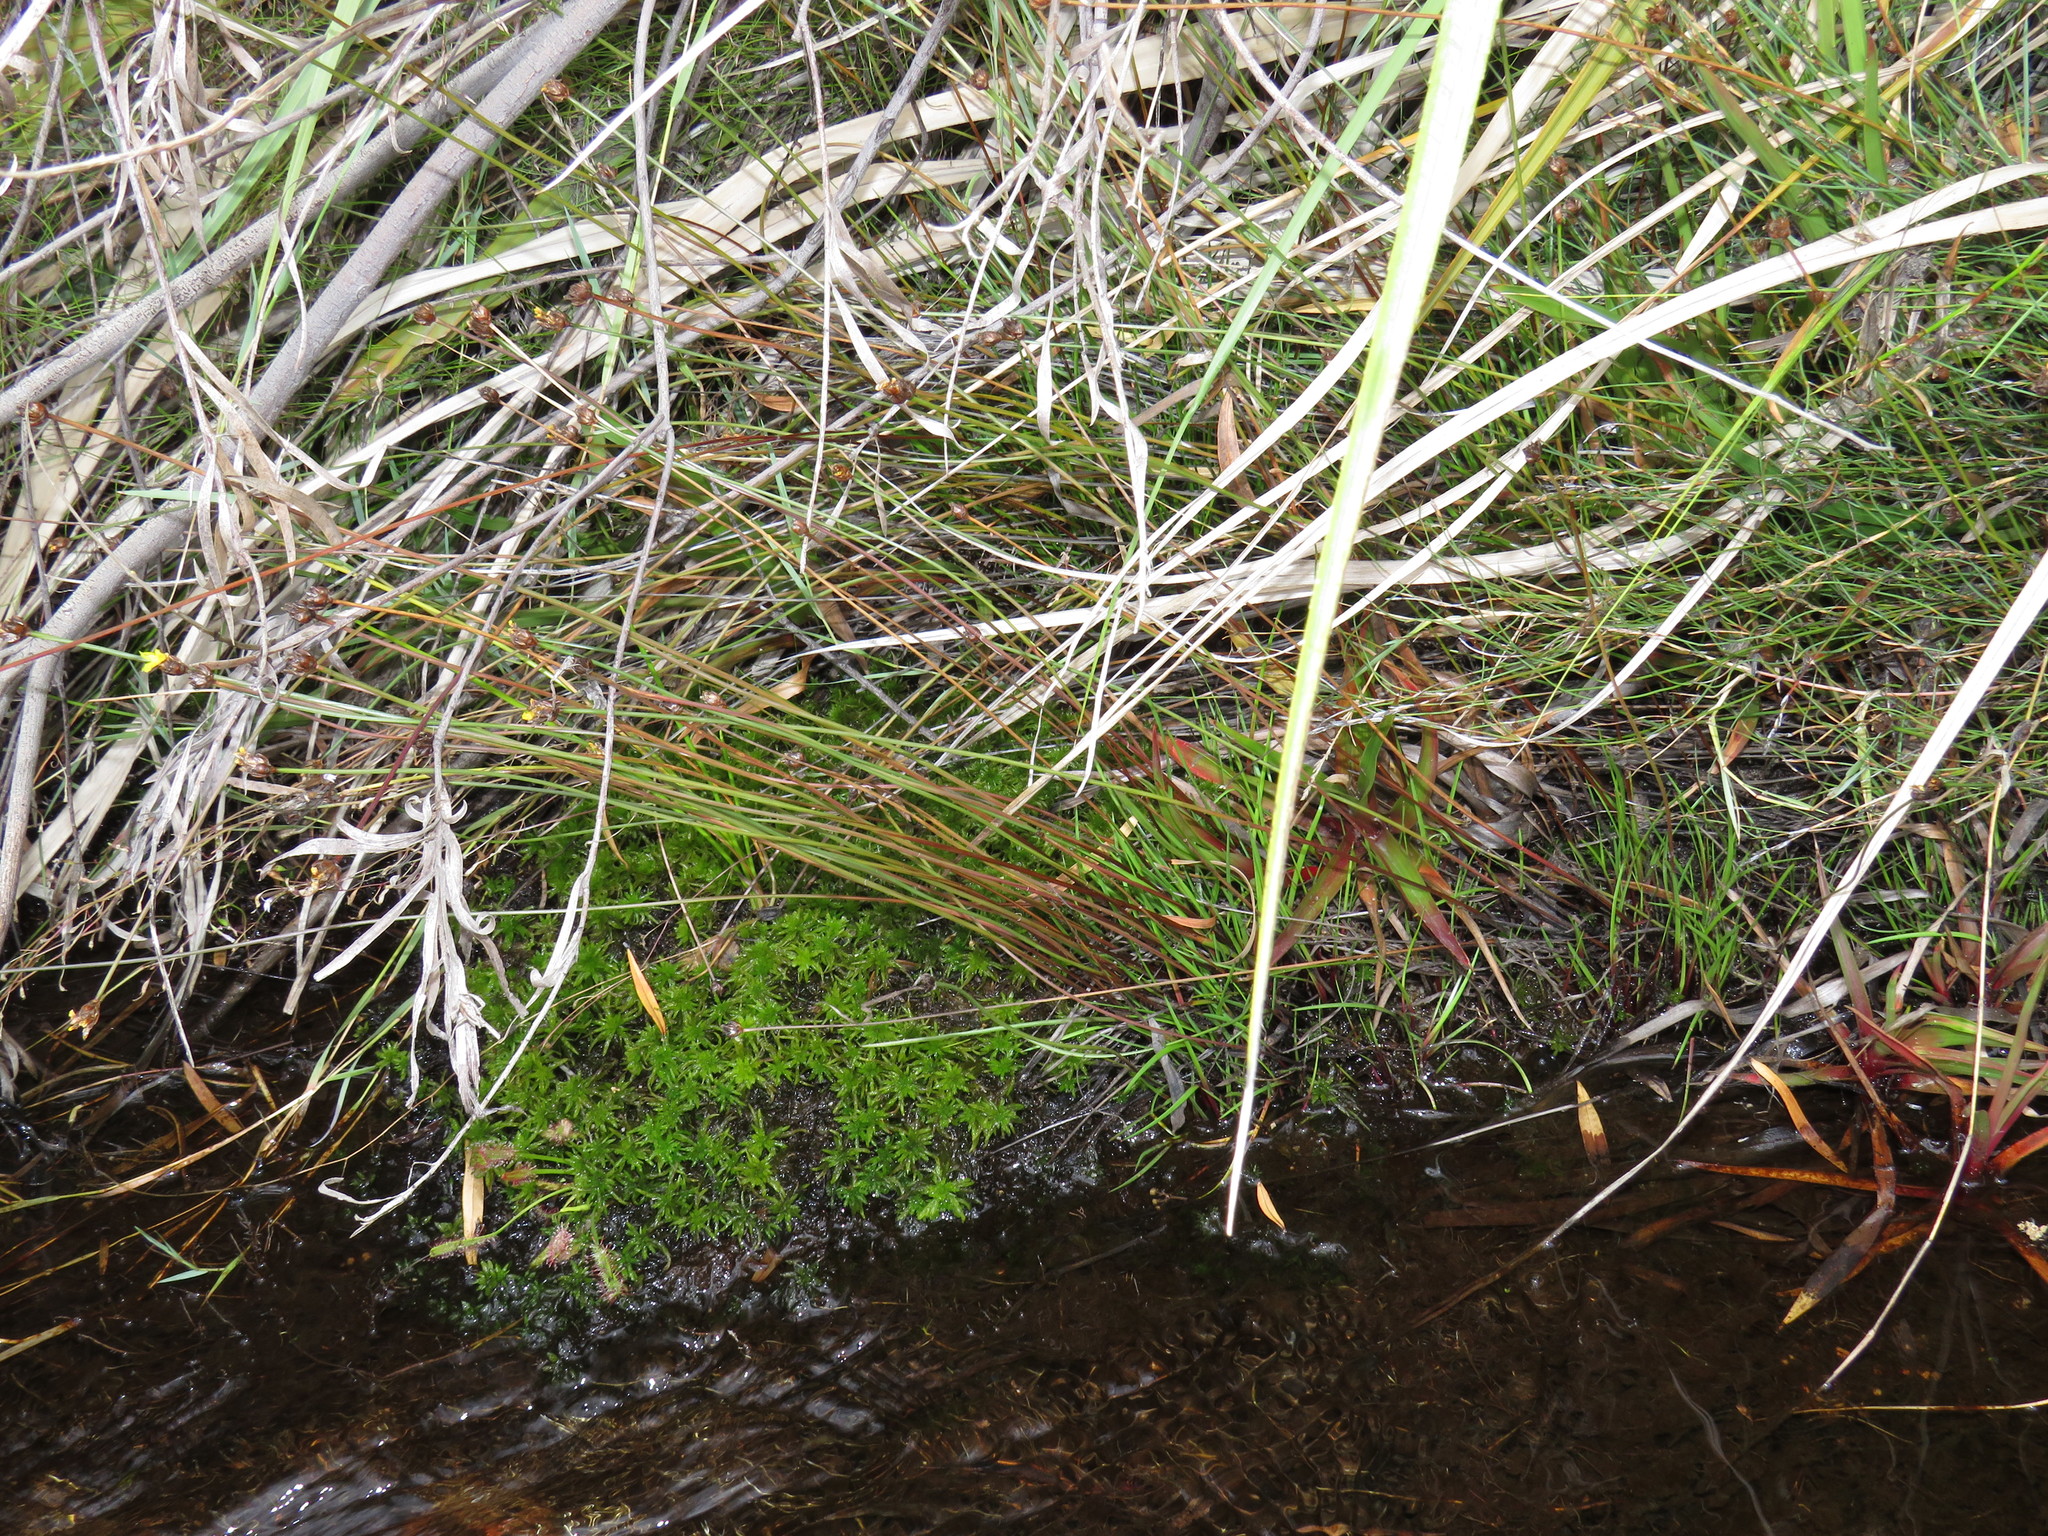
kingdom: Plantae
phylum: Tracheophyta
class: Liliopsida
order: Poales
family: Xyridaceae
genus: Xyris
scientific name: Xyris capensis
